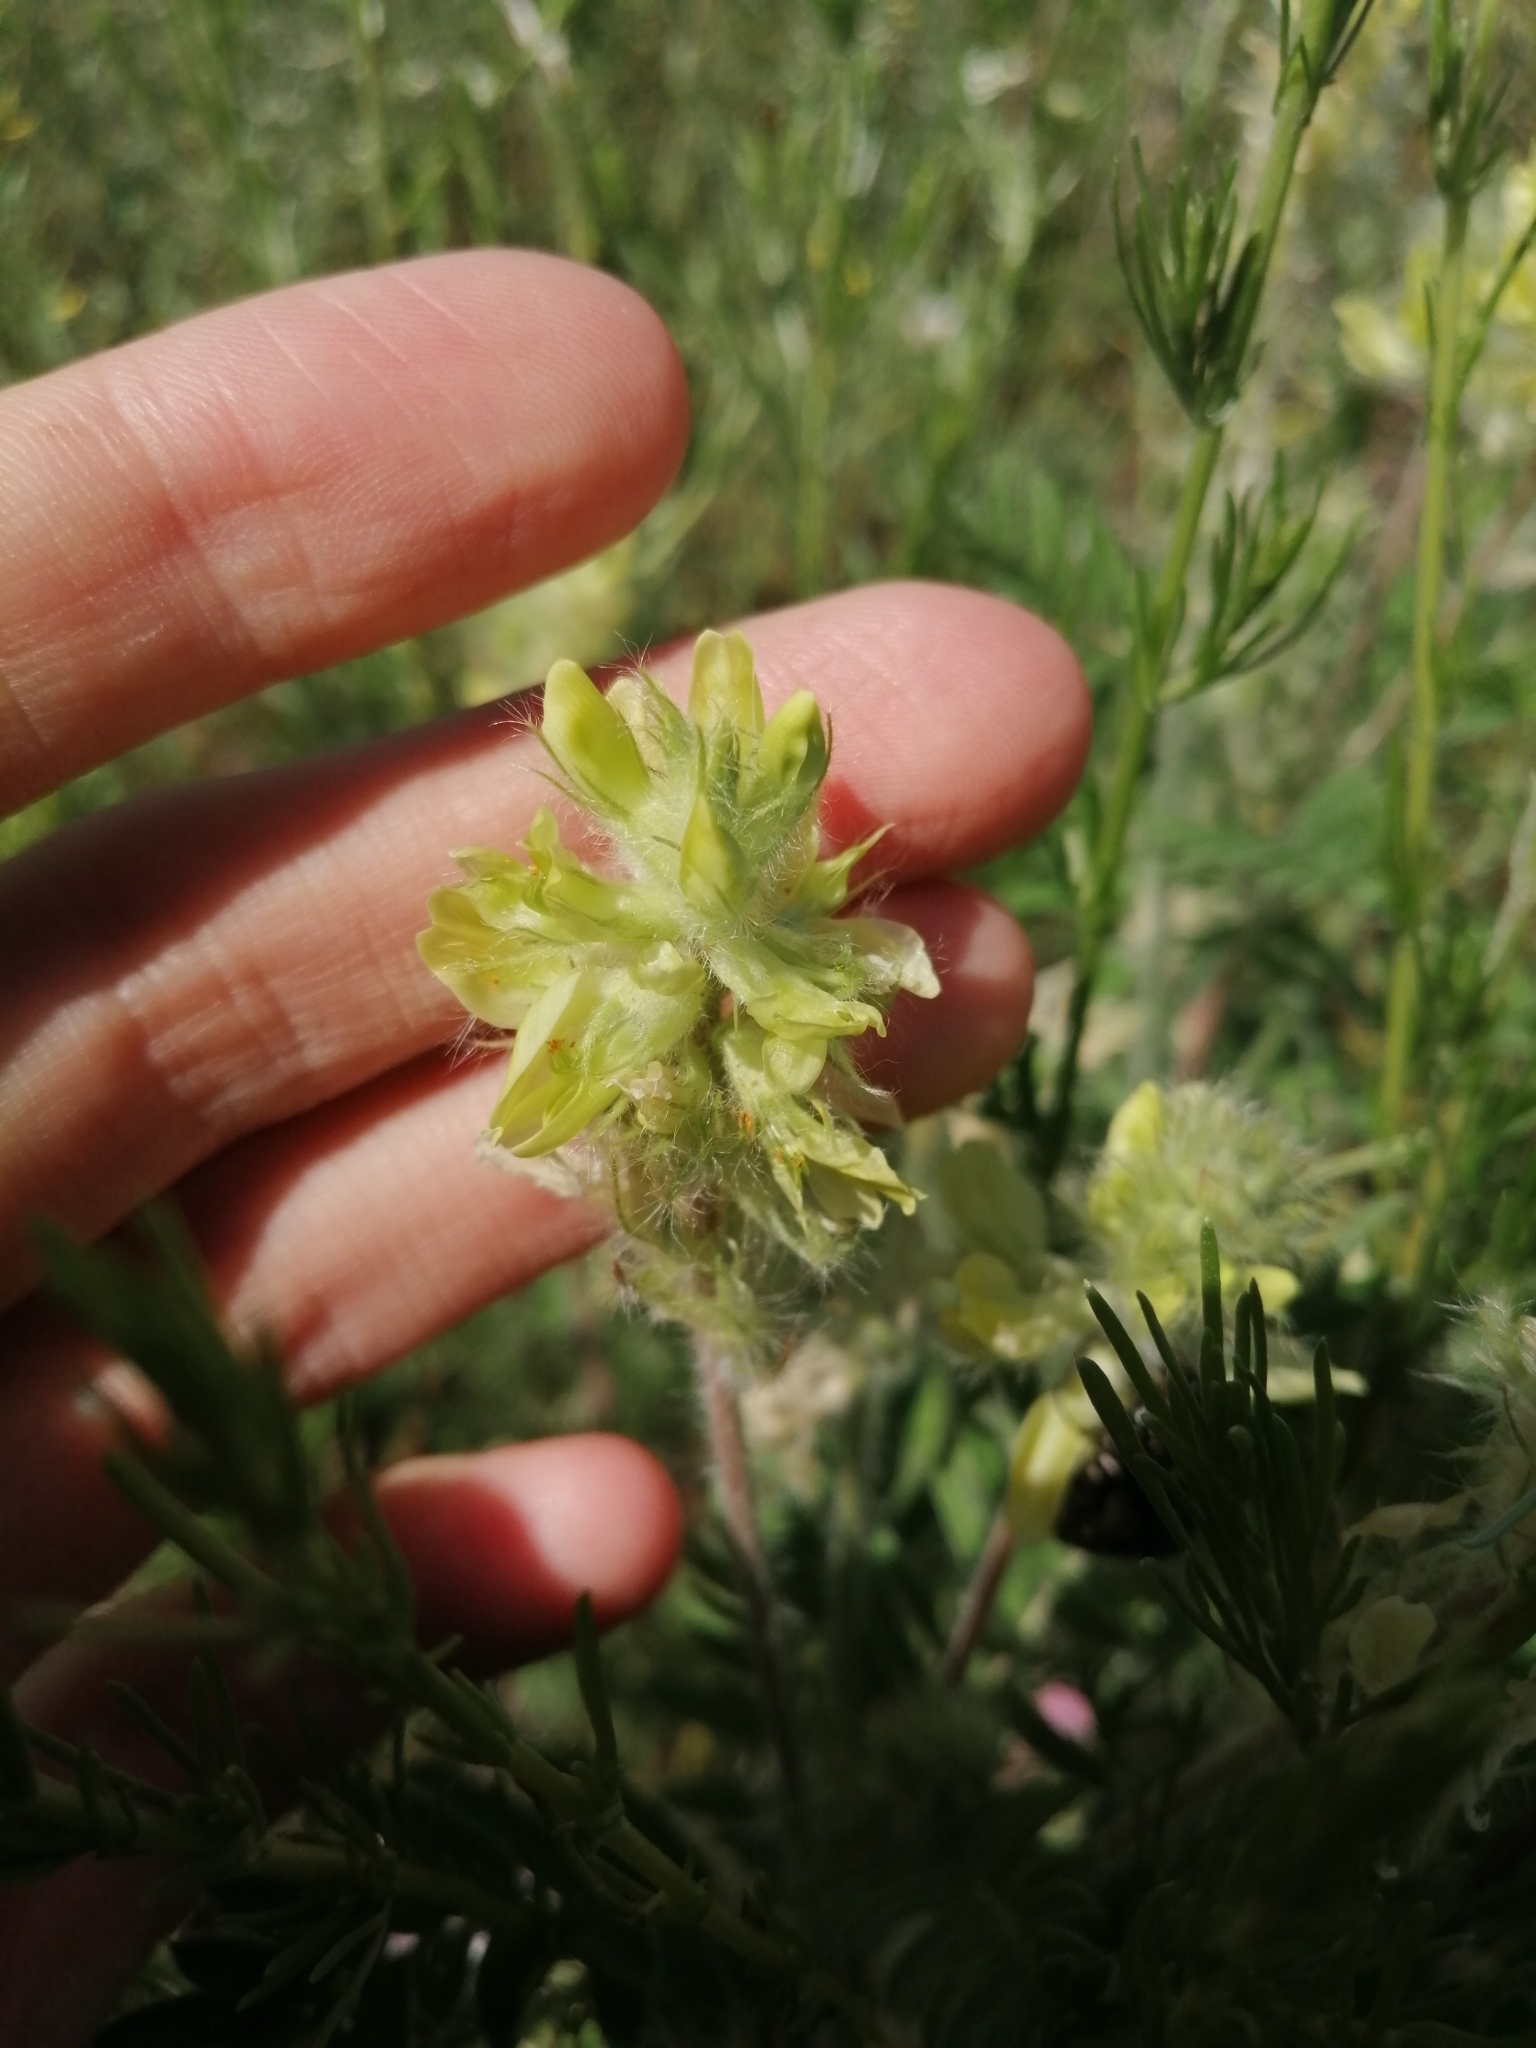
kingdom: Plantae
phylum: Tracheophyta
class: Magnoliopsida
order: Fabales
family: Fabaceae
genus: Oxytropis
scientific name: Oxytropis pilosa
